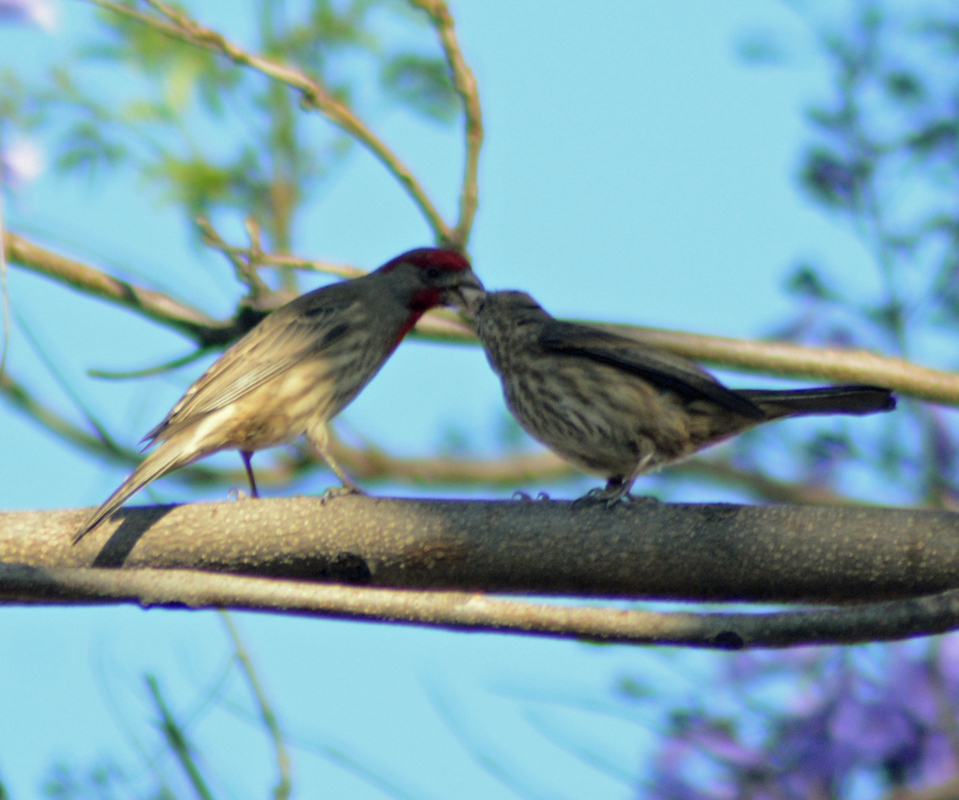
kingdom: Animalia
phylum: Chordata
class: Aves
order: Passeriformes
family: Fringillidae
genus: Haemorhous
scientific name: Haemorhous mexicanus
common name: House finch
